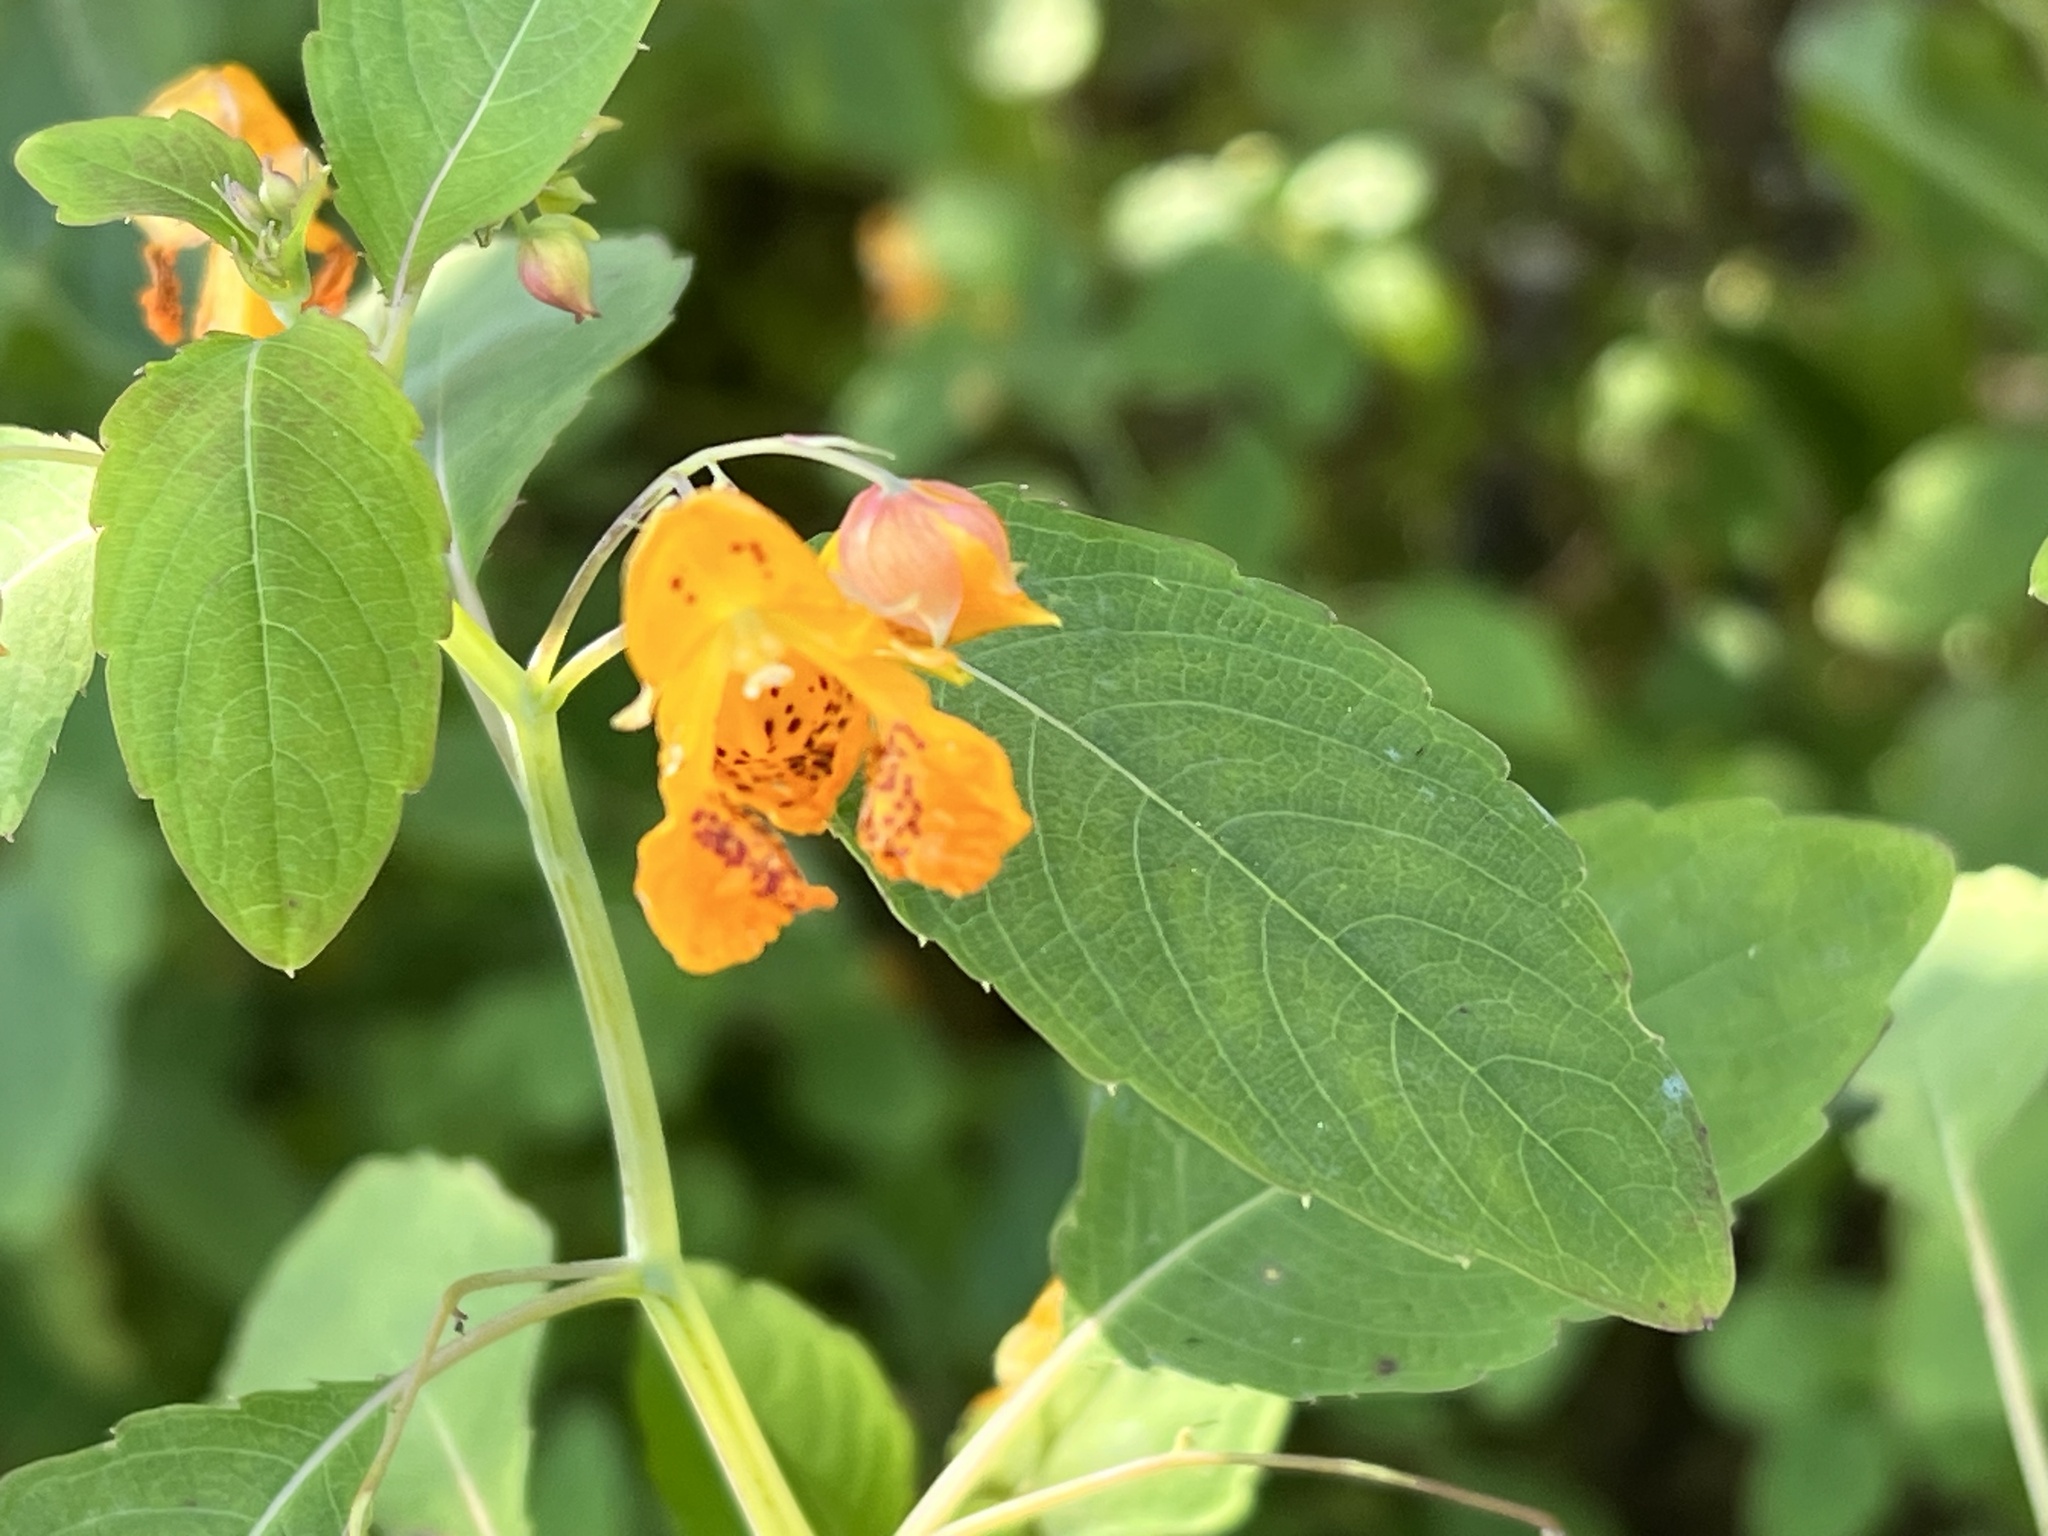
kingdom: Plantae
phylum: Tracheophyta
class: Magnoliopsida
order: Ericales
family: Balsaminaceae
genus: Impatiens
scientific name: Impatiens capensis
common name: Orange balsam
